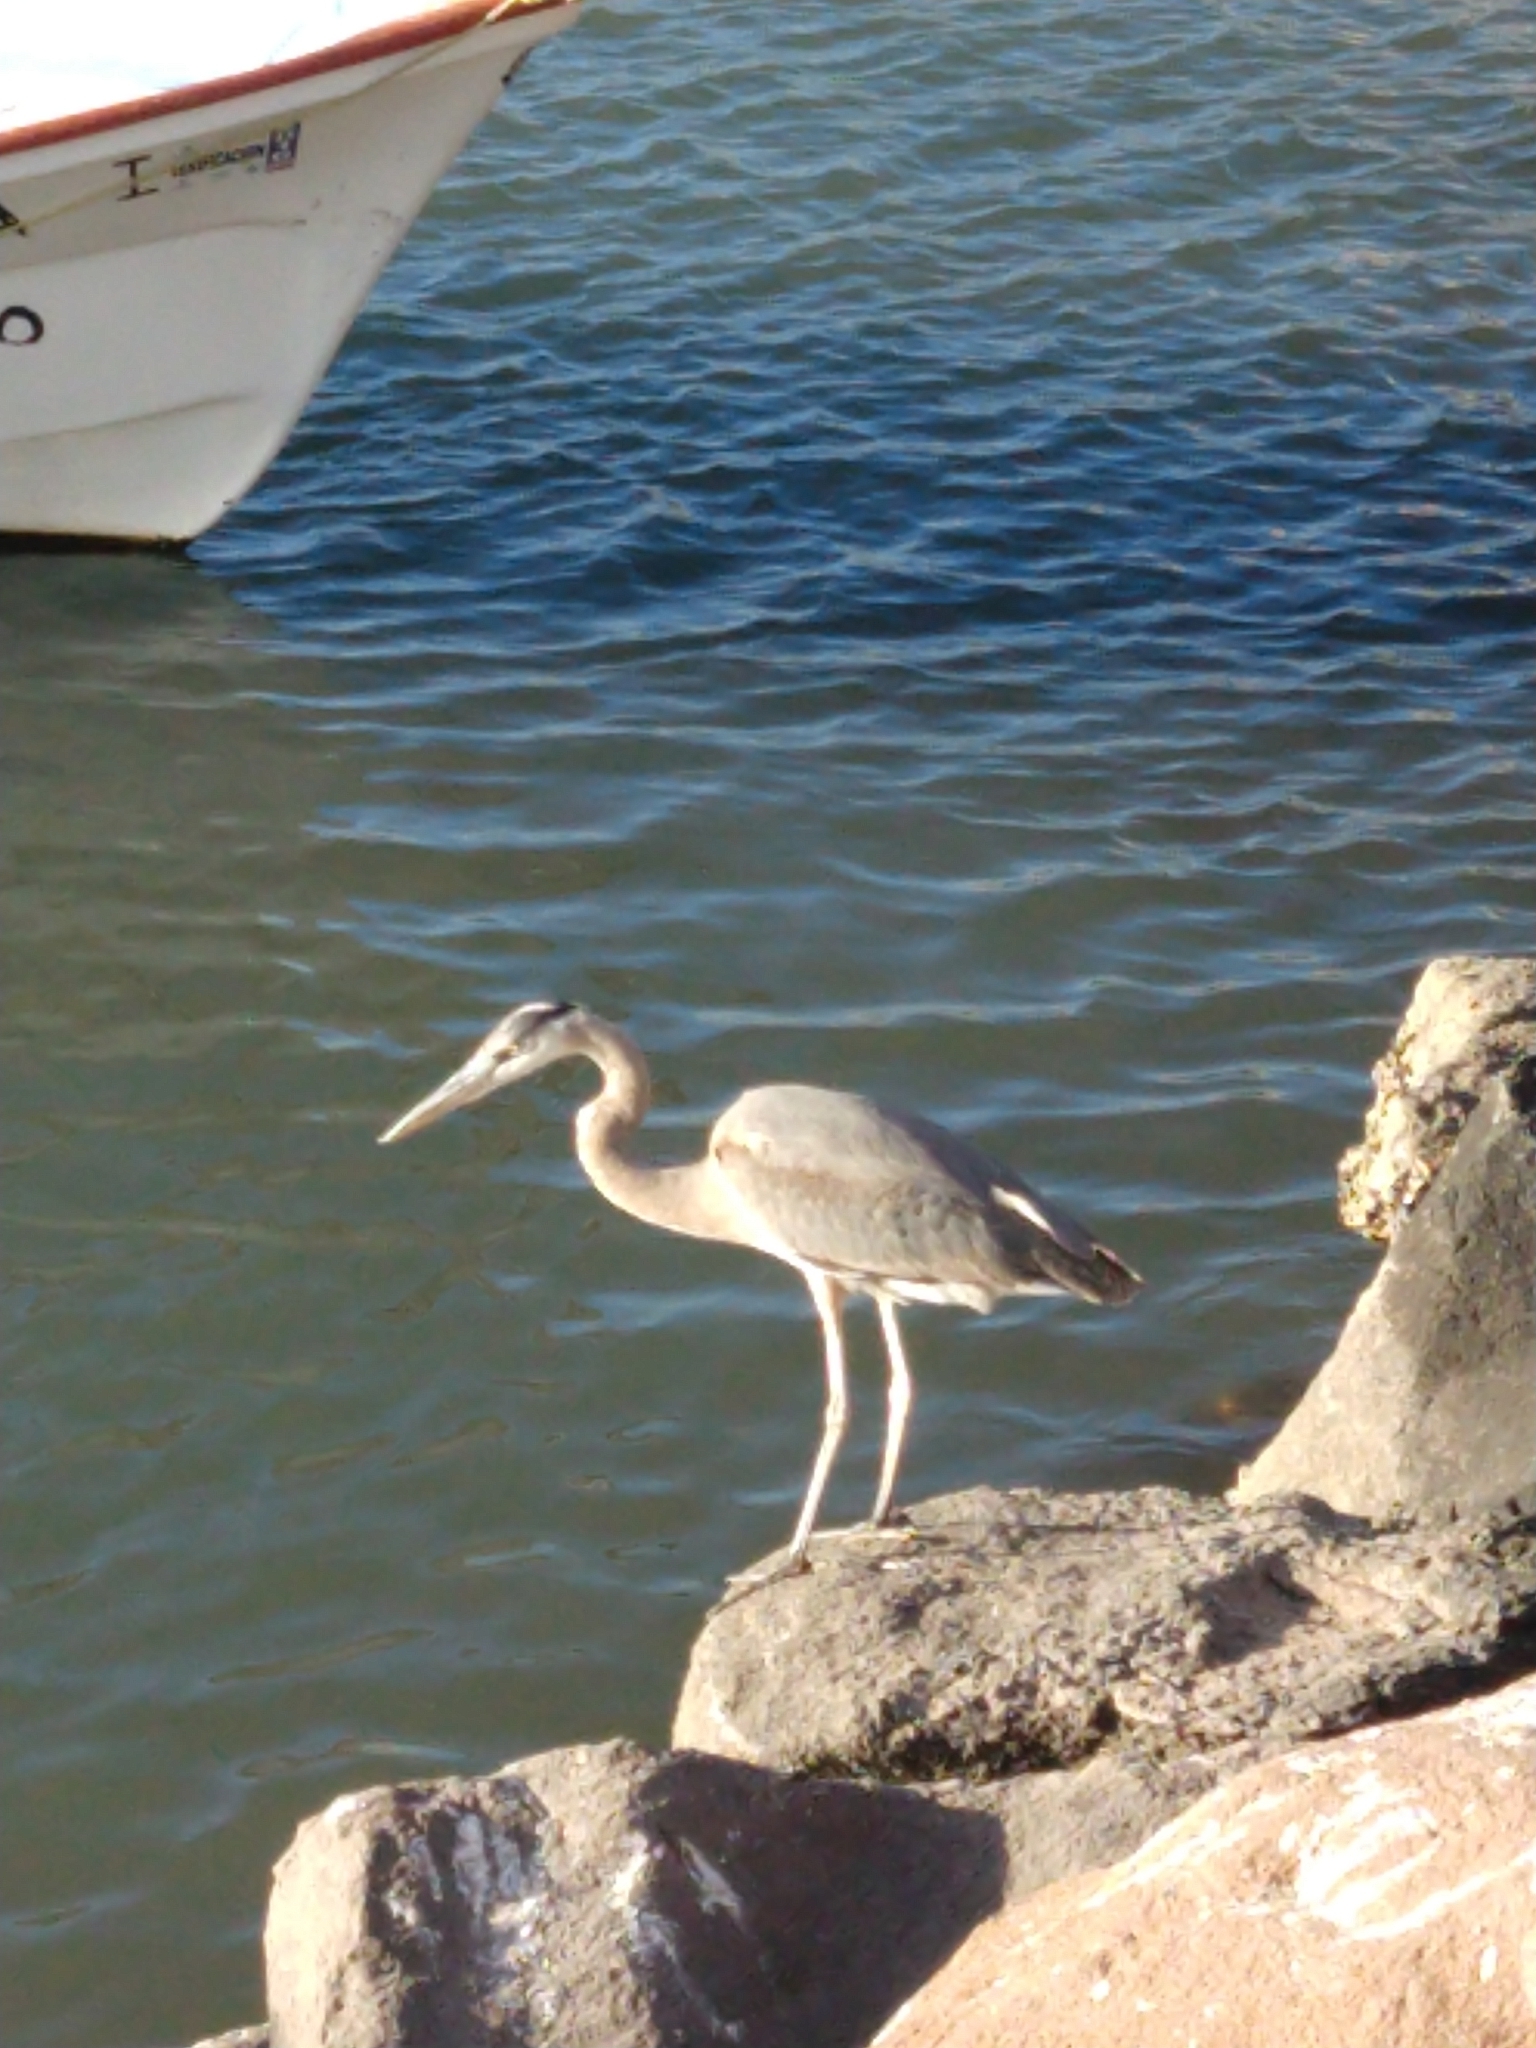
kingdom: Animalia
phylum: Chordata
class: Aves
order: Pelecaniformes
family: Ardeidae
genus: Ardea
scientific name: Ardea herodias
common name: Great blue heron
